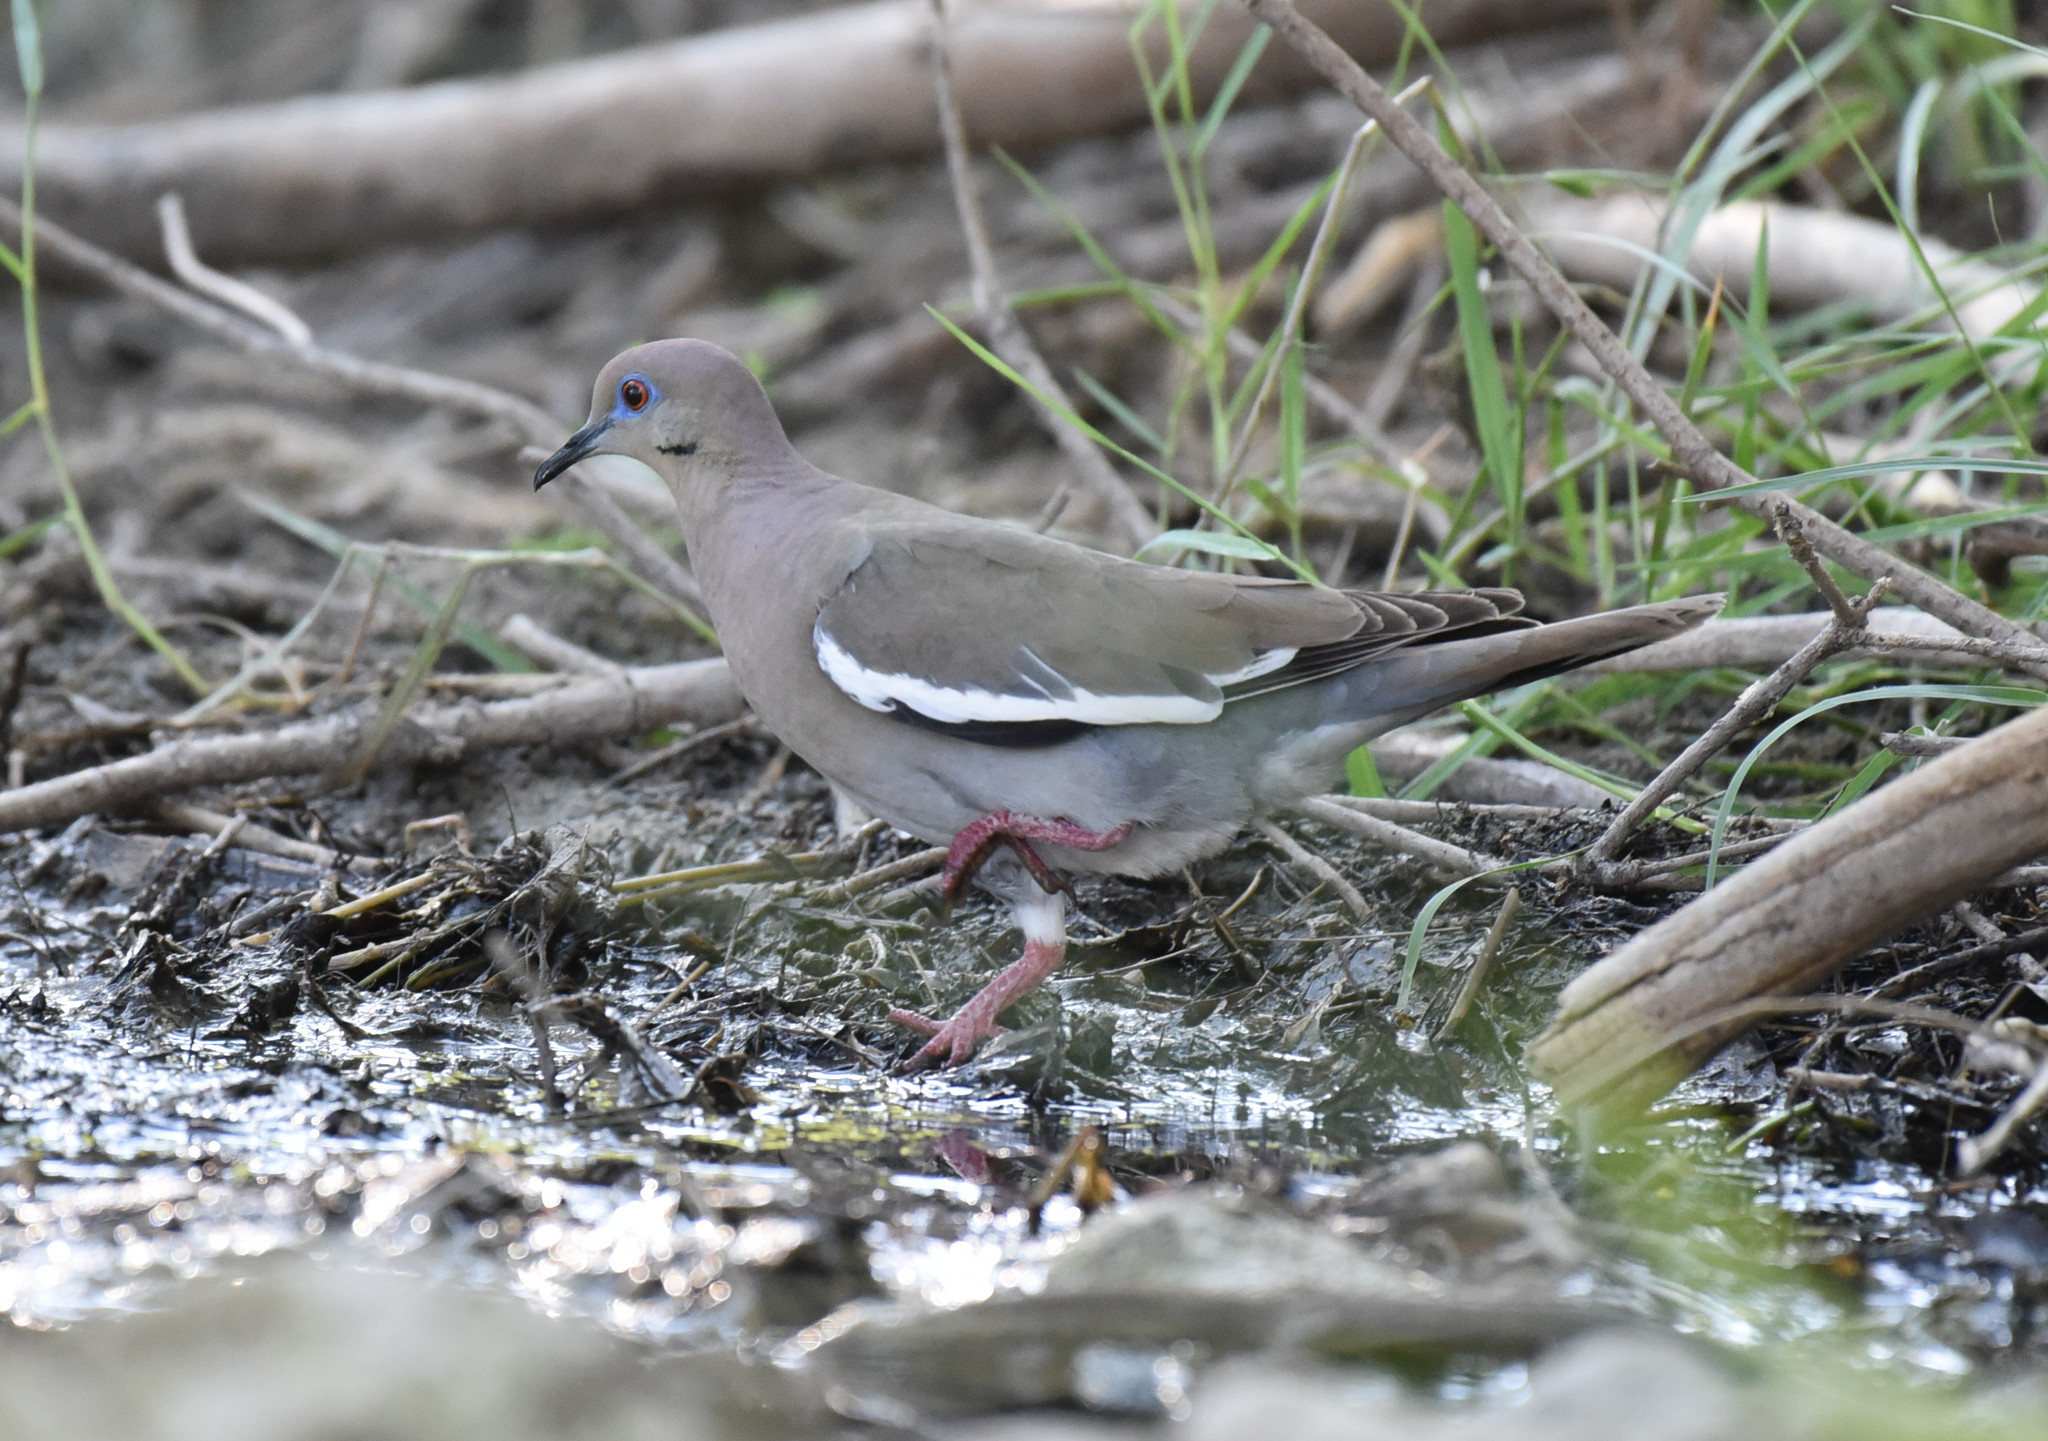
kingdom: Animalia
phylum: Chordata
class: Aves
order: Columbiformes
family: Columbidae
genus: Zenaida
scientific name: Zenaida asiatica
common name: White-winged dove
